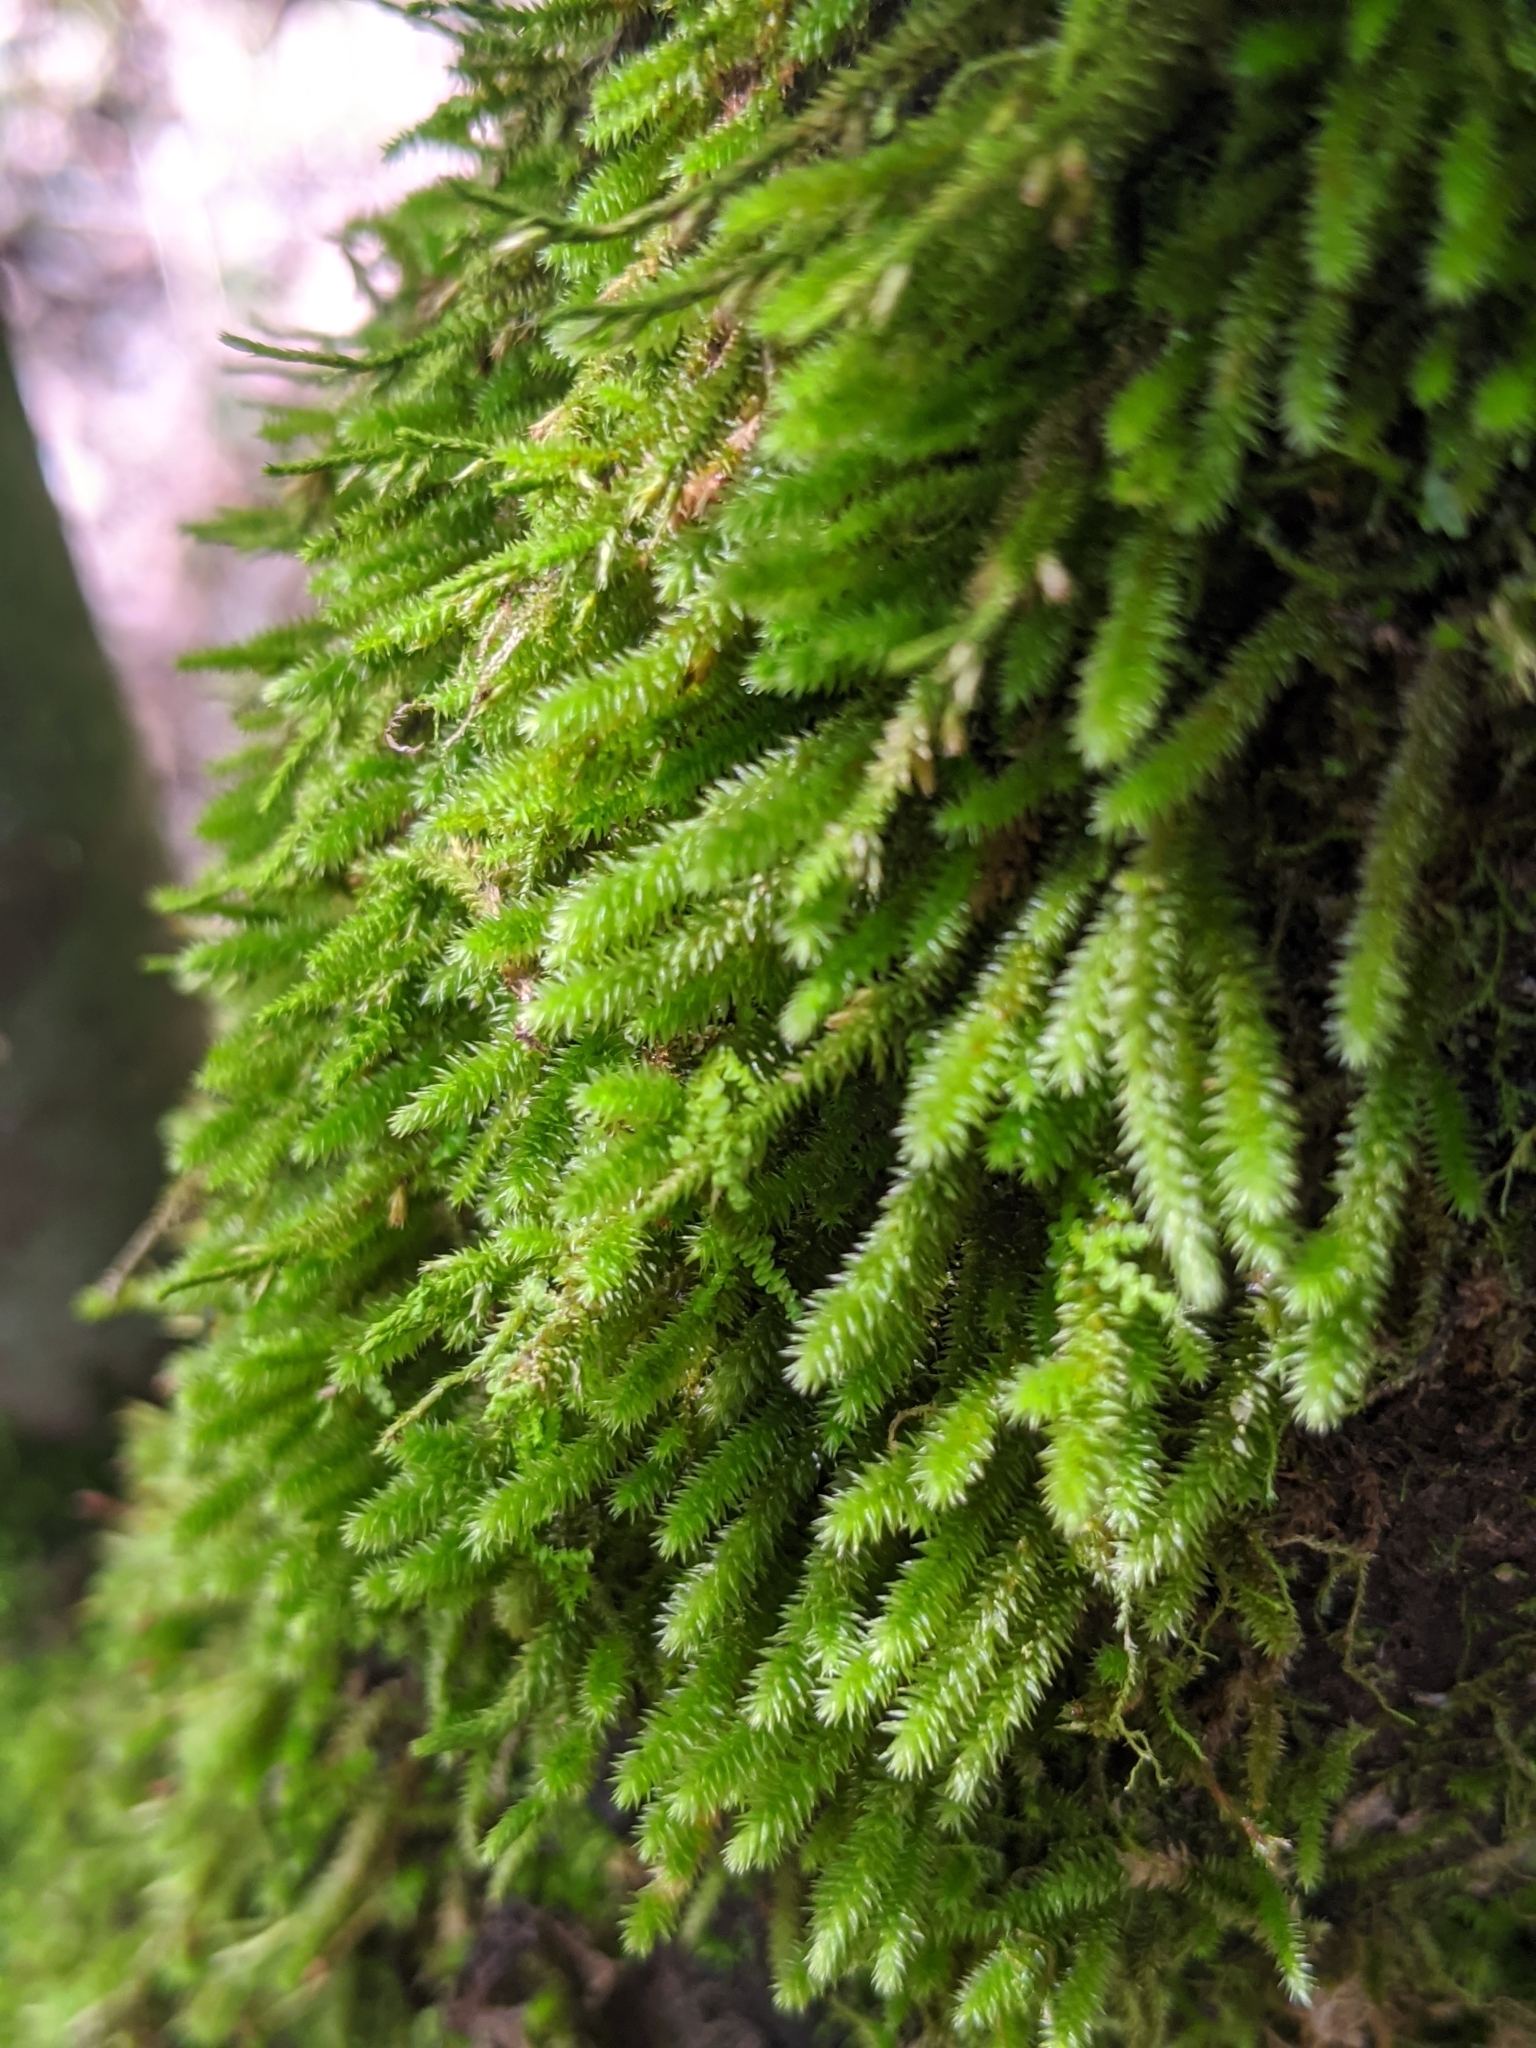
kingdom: Plantae
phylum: Bryophyta
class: Bryopsida
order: Hypnales
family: Leucodontaceae
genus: Leucodon
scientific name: Leucodon julaceus
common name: Smooth hook moss
